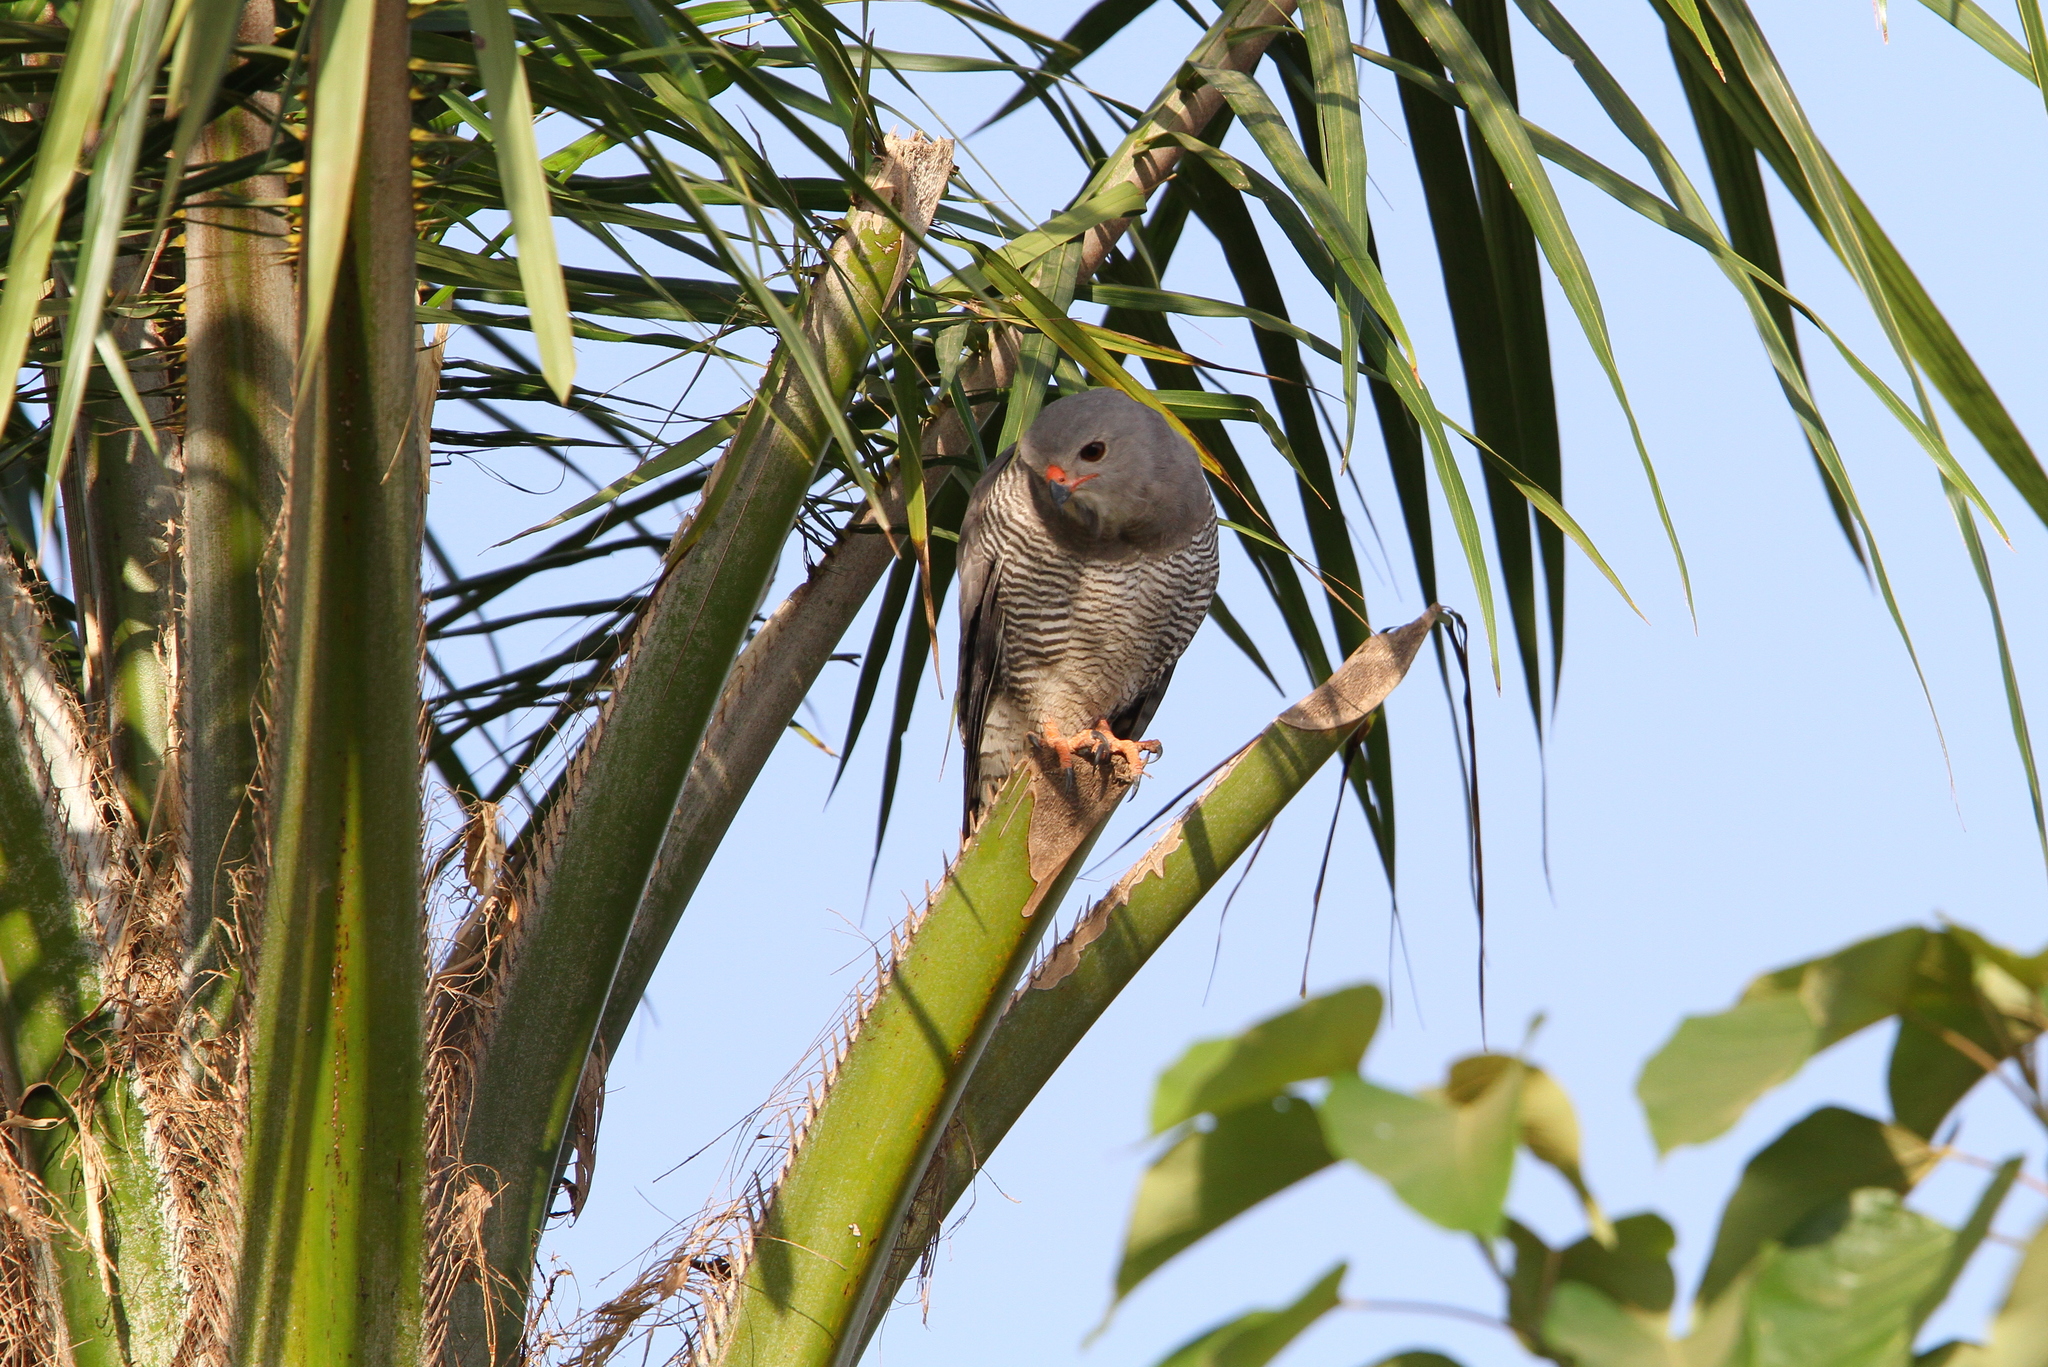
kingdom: Animalia
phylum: Chordata
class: Aves
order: Accipitriformes
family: Accipitridae
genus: Kaupifalco
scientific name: Kaupifalco monogrammicus
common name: Lizard buzzard
